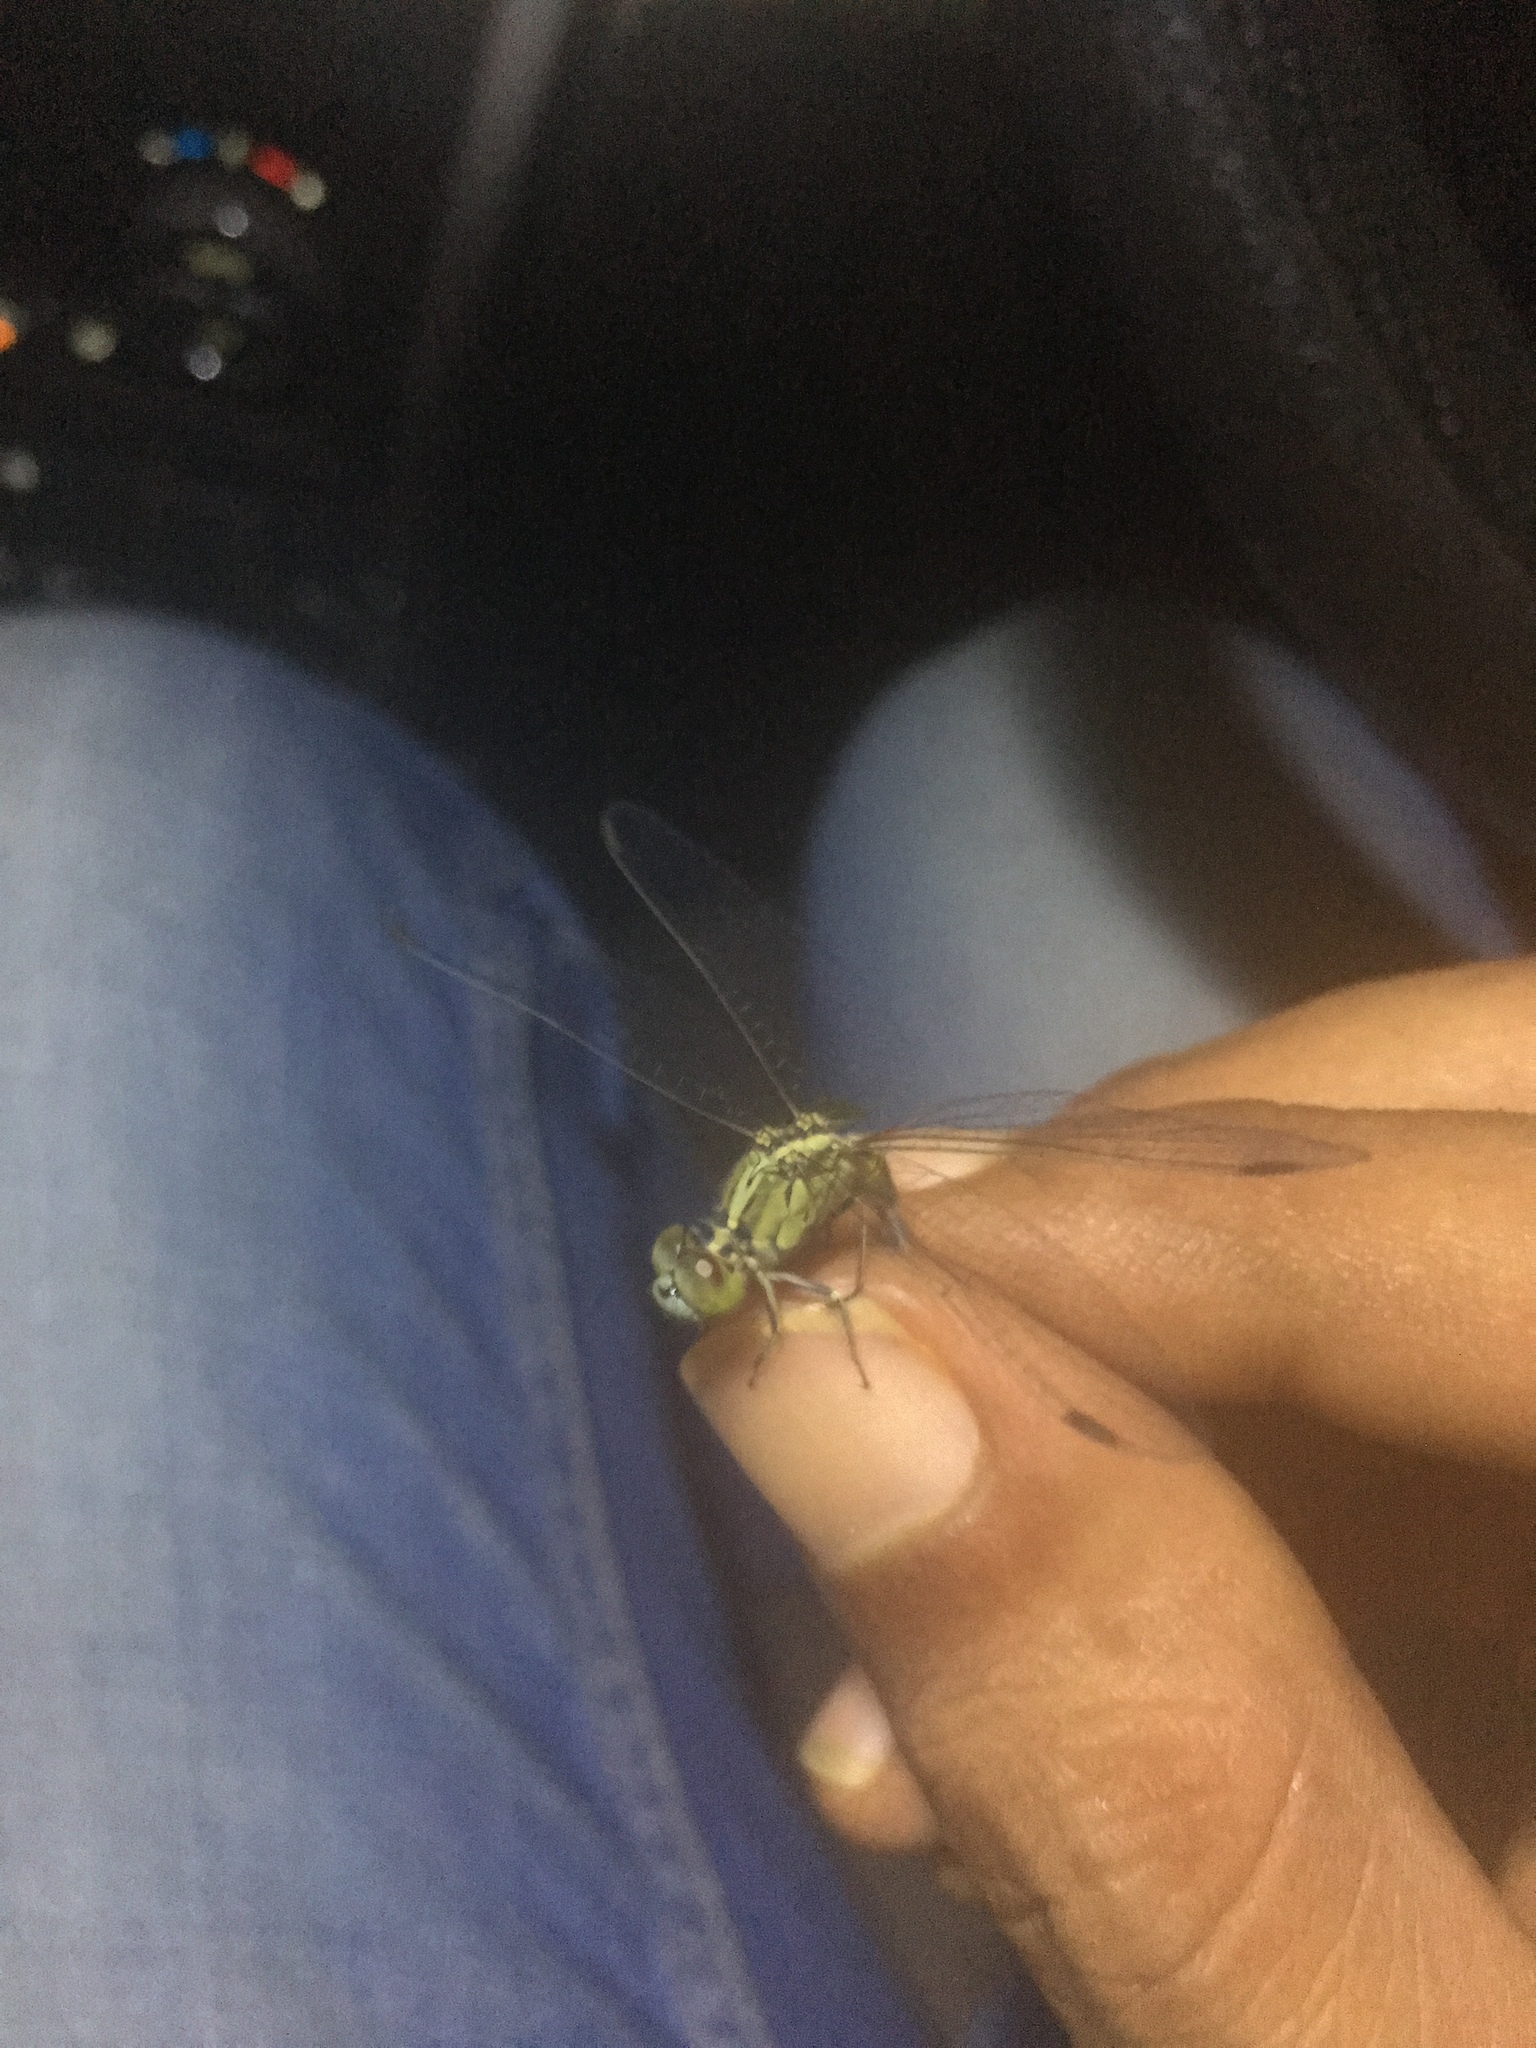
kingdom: Animalia
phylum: Arthropoda
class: Insecta
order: Odonata
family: Libellulidae
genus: Diplacodes
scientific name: Diplacodes trivialis
